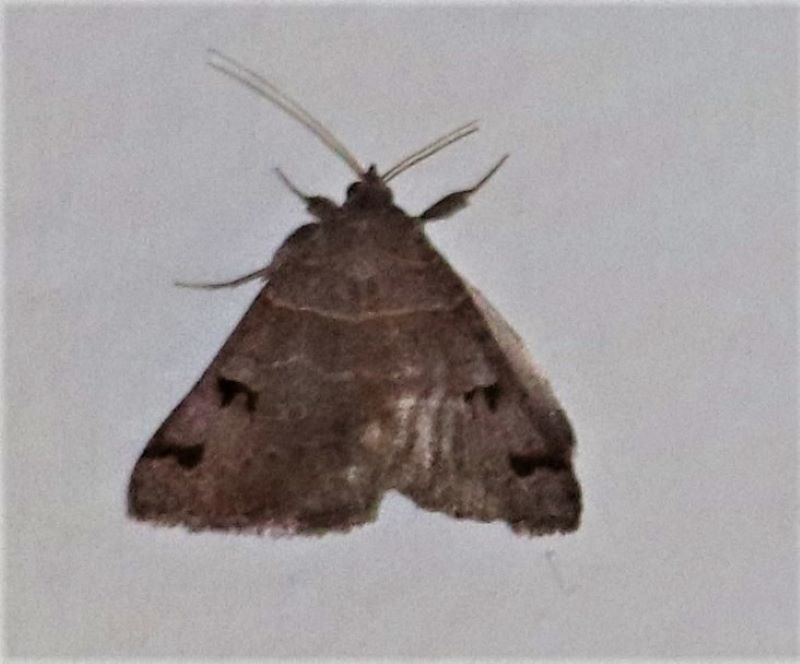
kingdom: Animalia
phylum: Arthropoda
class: Insecta
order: Lepidoptera
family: Erebidae
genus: Mocis
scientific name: Mocis mutuaria
